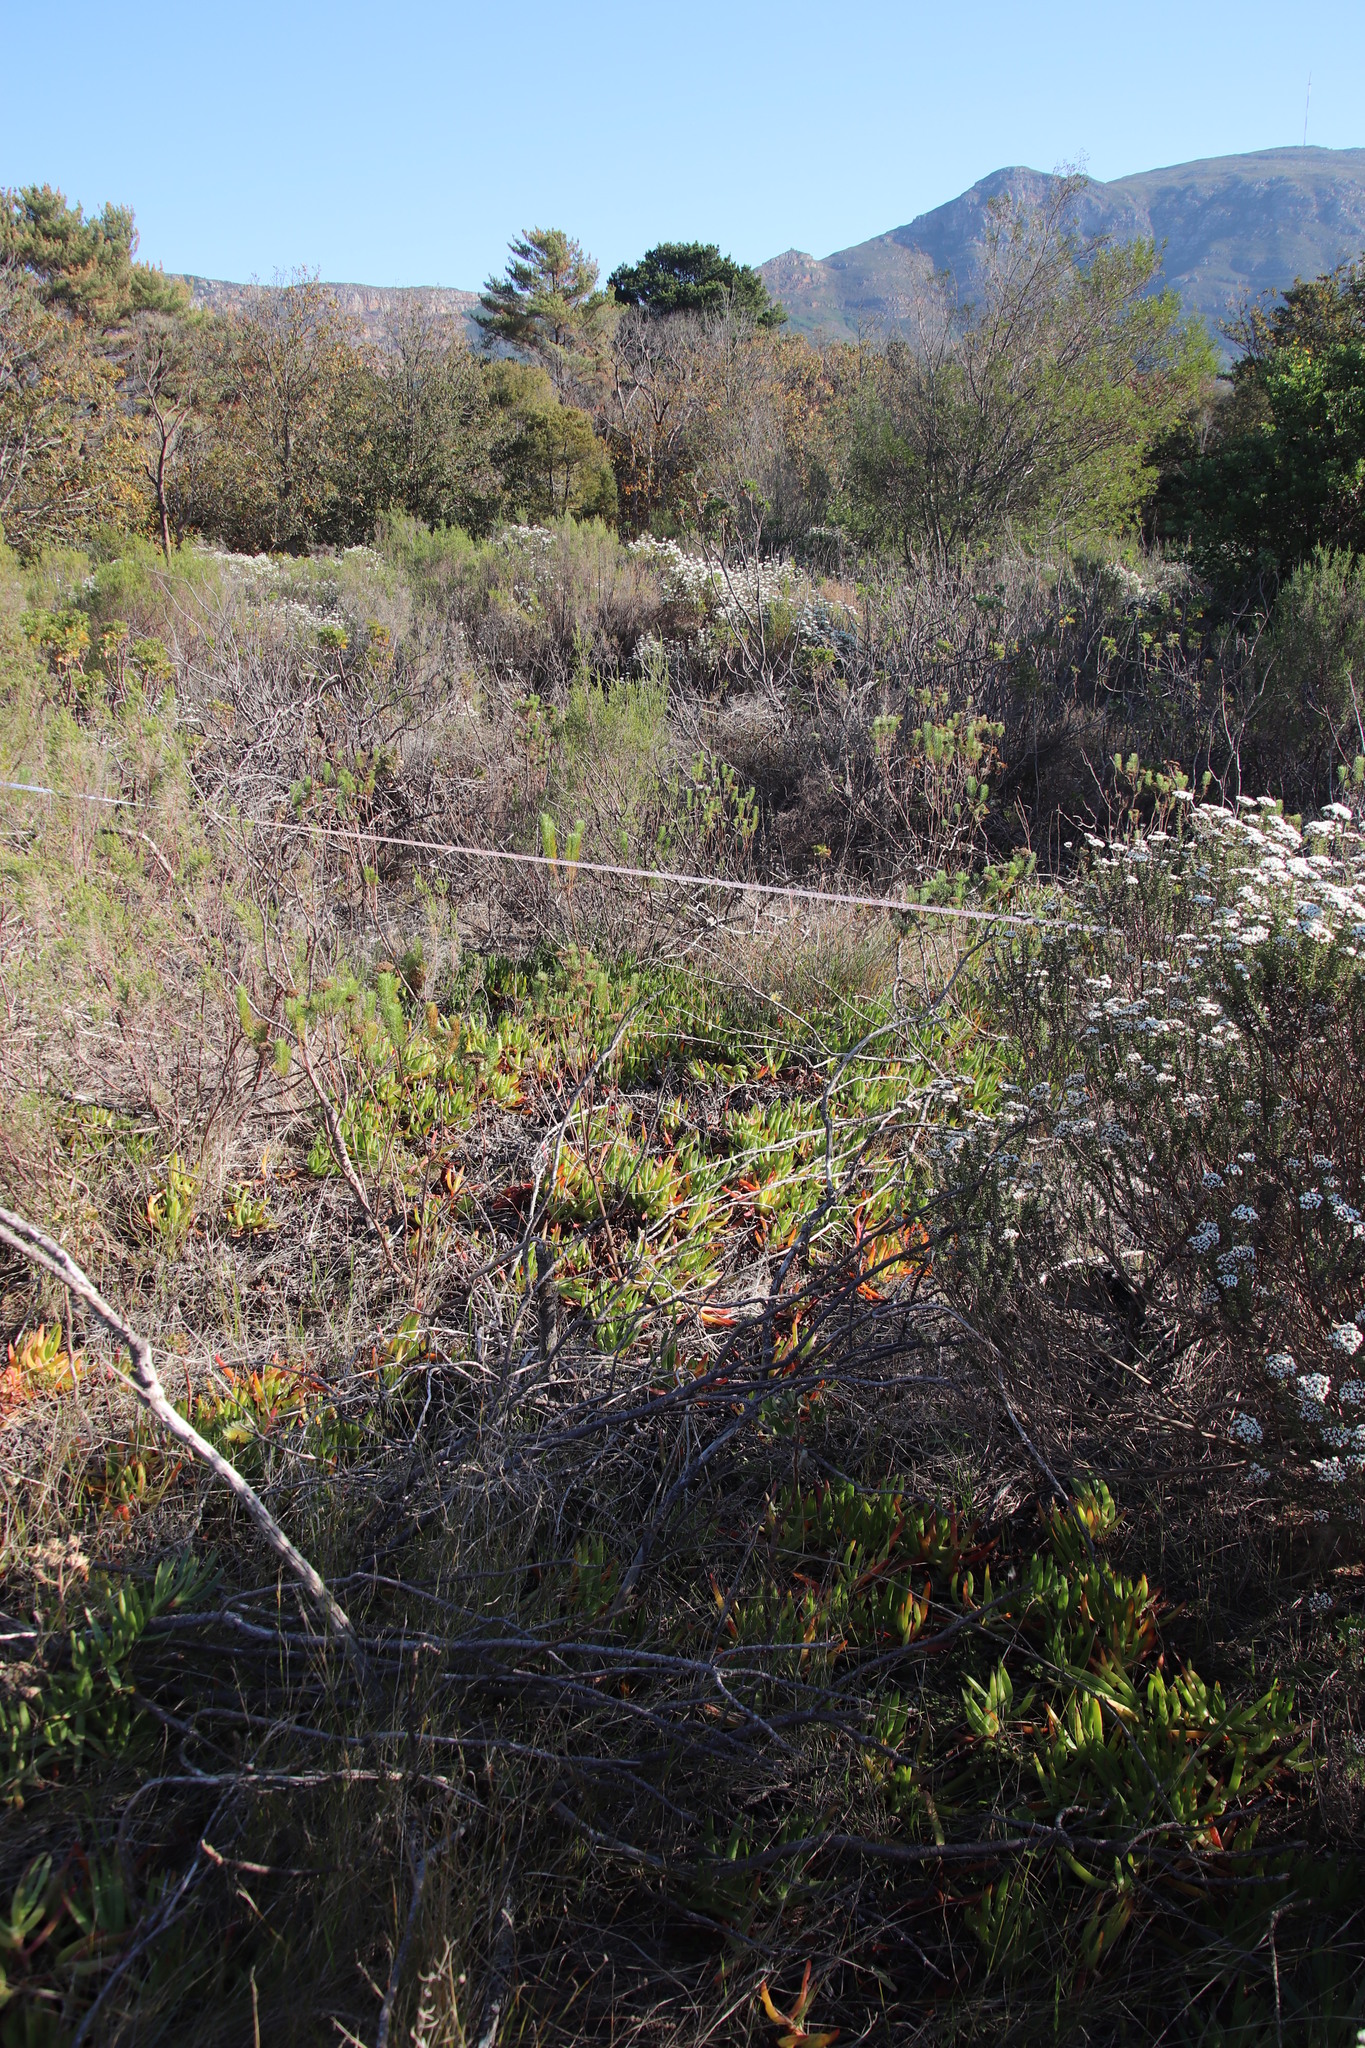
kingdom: Plantae
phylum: Tracheophyta
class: Magnoliopsida
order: Caryophyllales
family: Aizoaceae
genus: Carpobrotus
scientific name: Carpobrotus edulis
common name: Hottentot-fig
